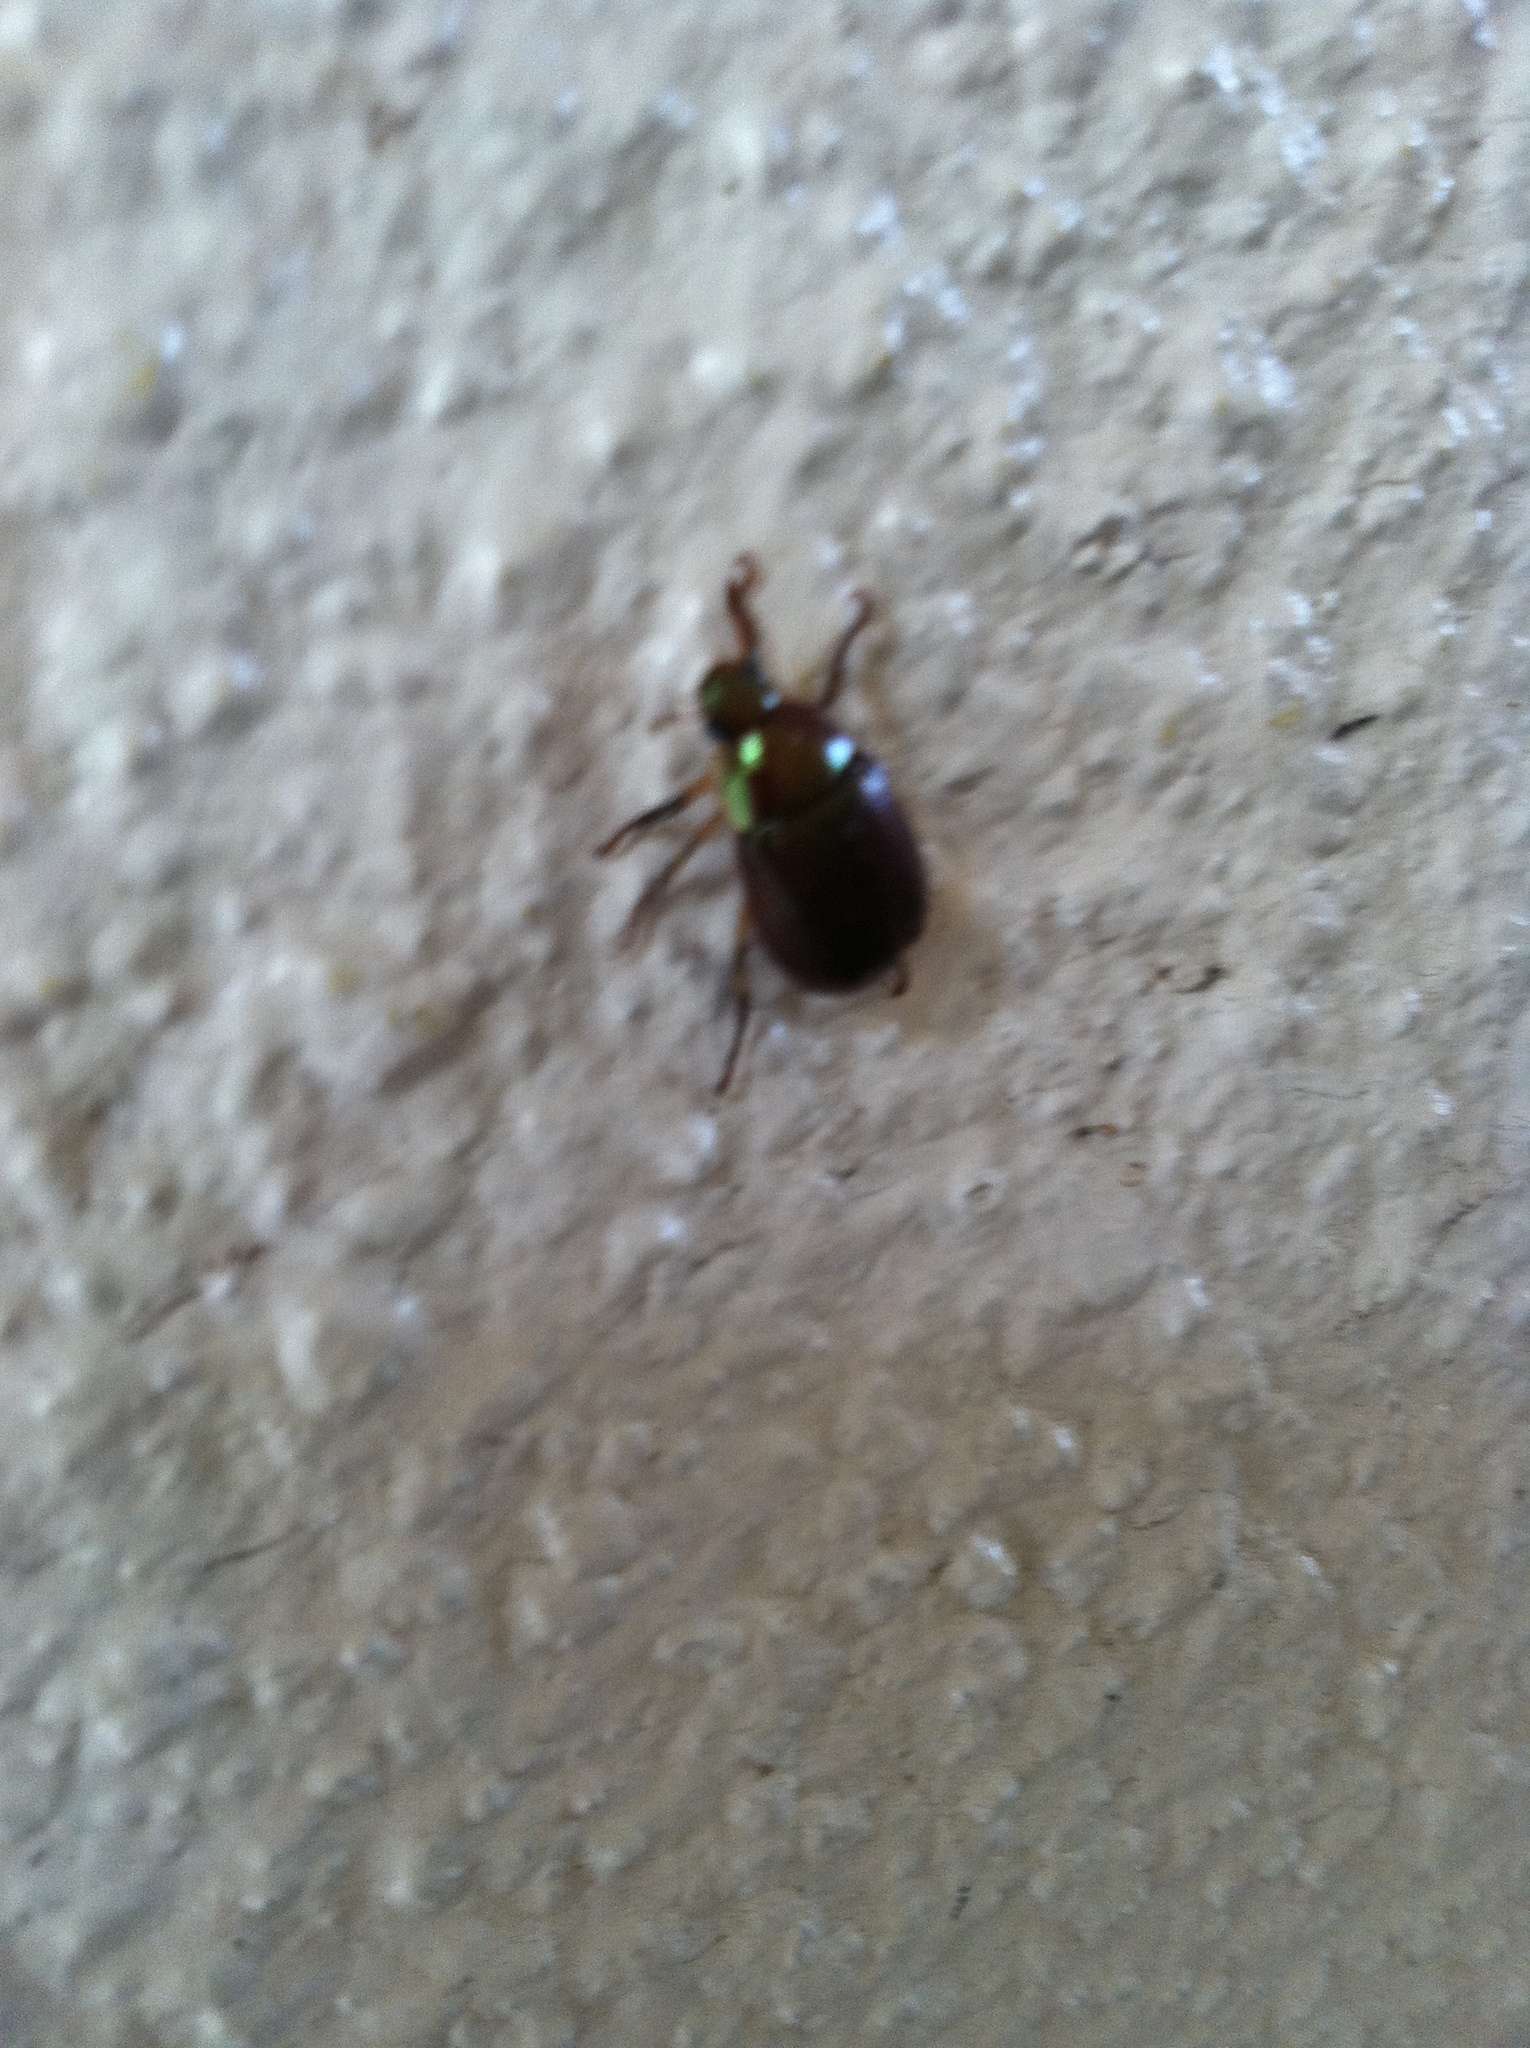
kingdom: Animalia
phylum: Arthropoda
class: Insecta
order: Coleoptera
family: Scarabaeidae
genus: Callistethus
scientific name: Callistethus marginatus
